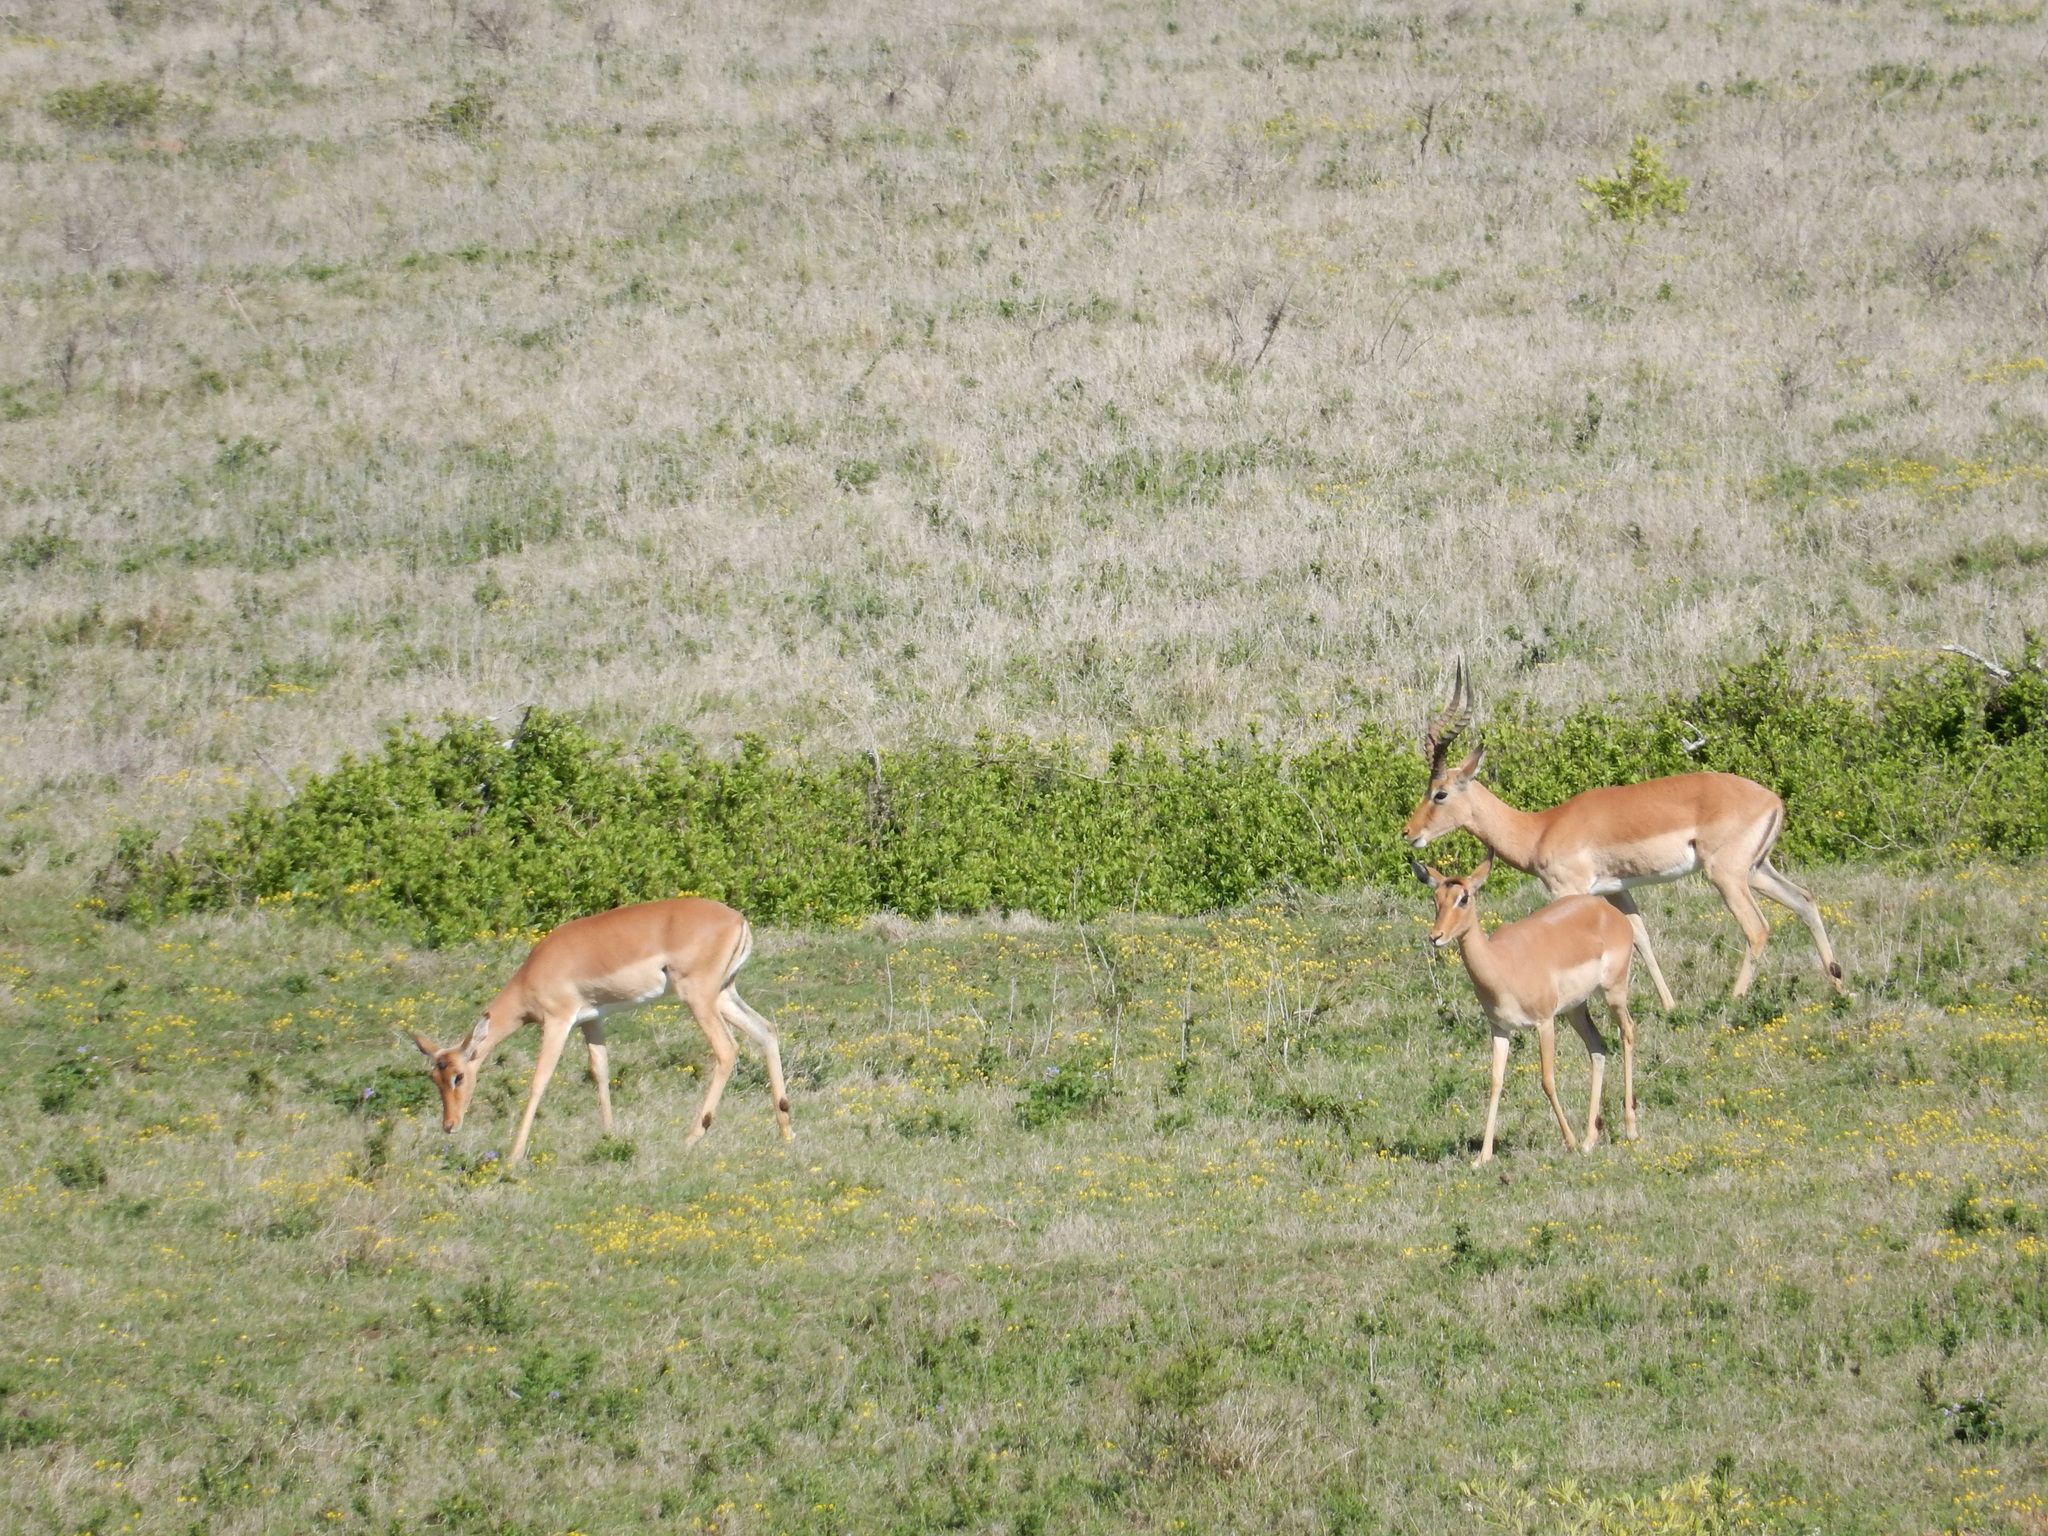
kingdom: Animalia
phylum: Chordata
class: Mammalia
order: Artiodactyla
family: Bovidae
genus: Aepyceros
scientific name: Aepyceros melampus
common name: Impala
